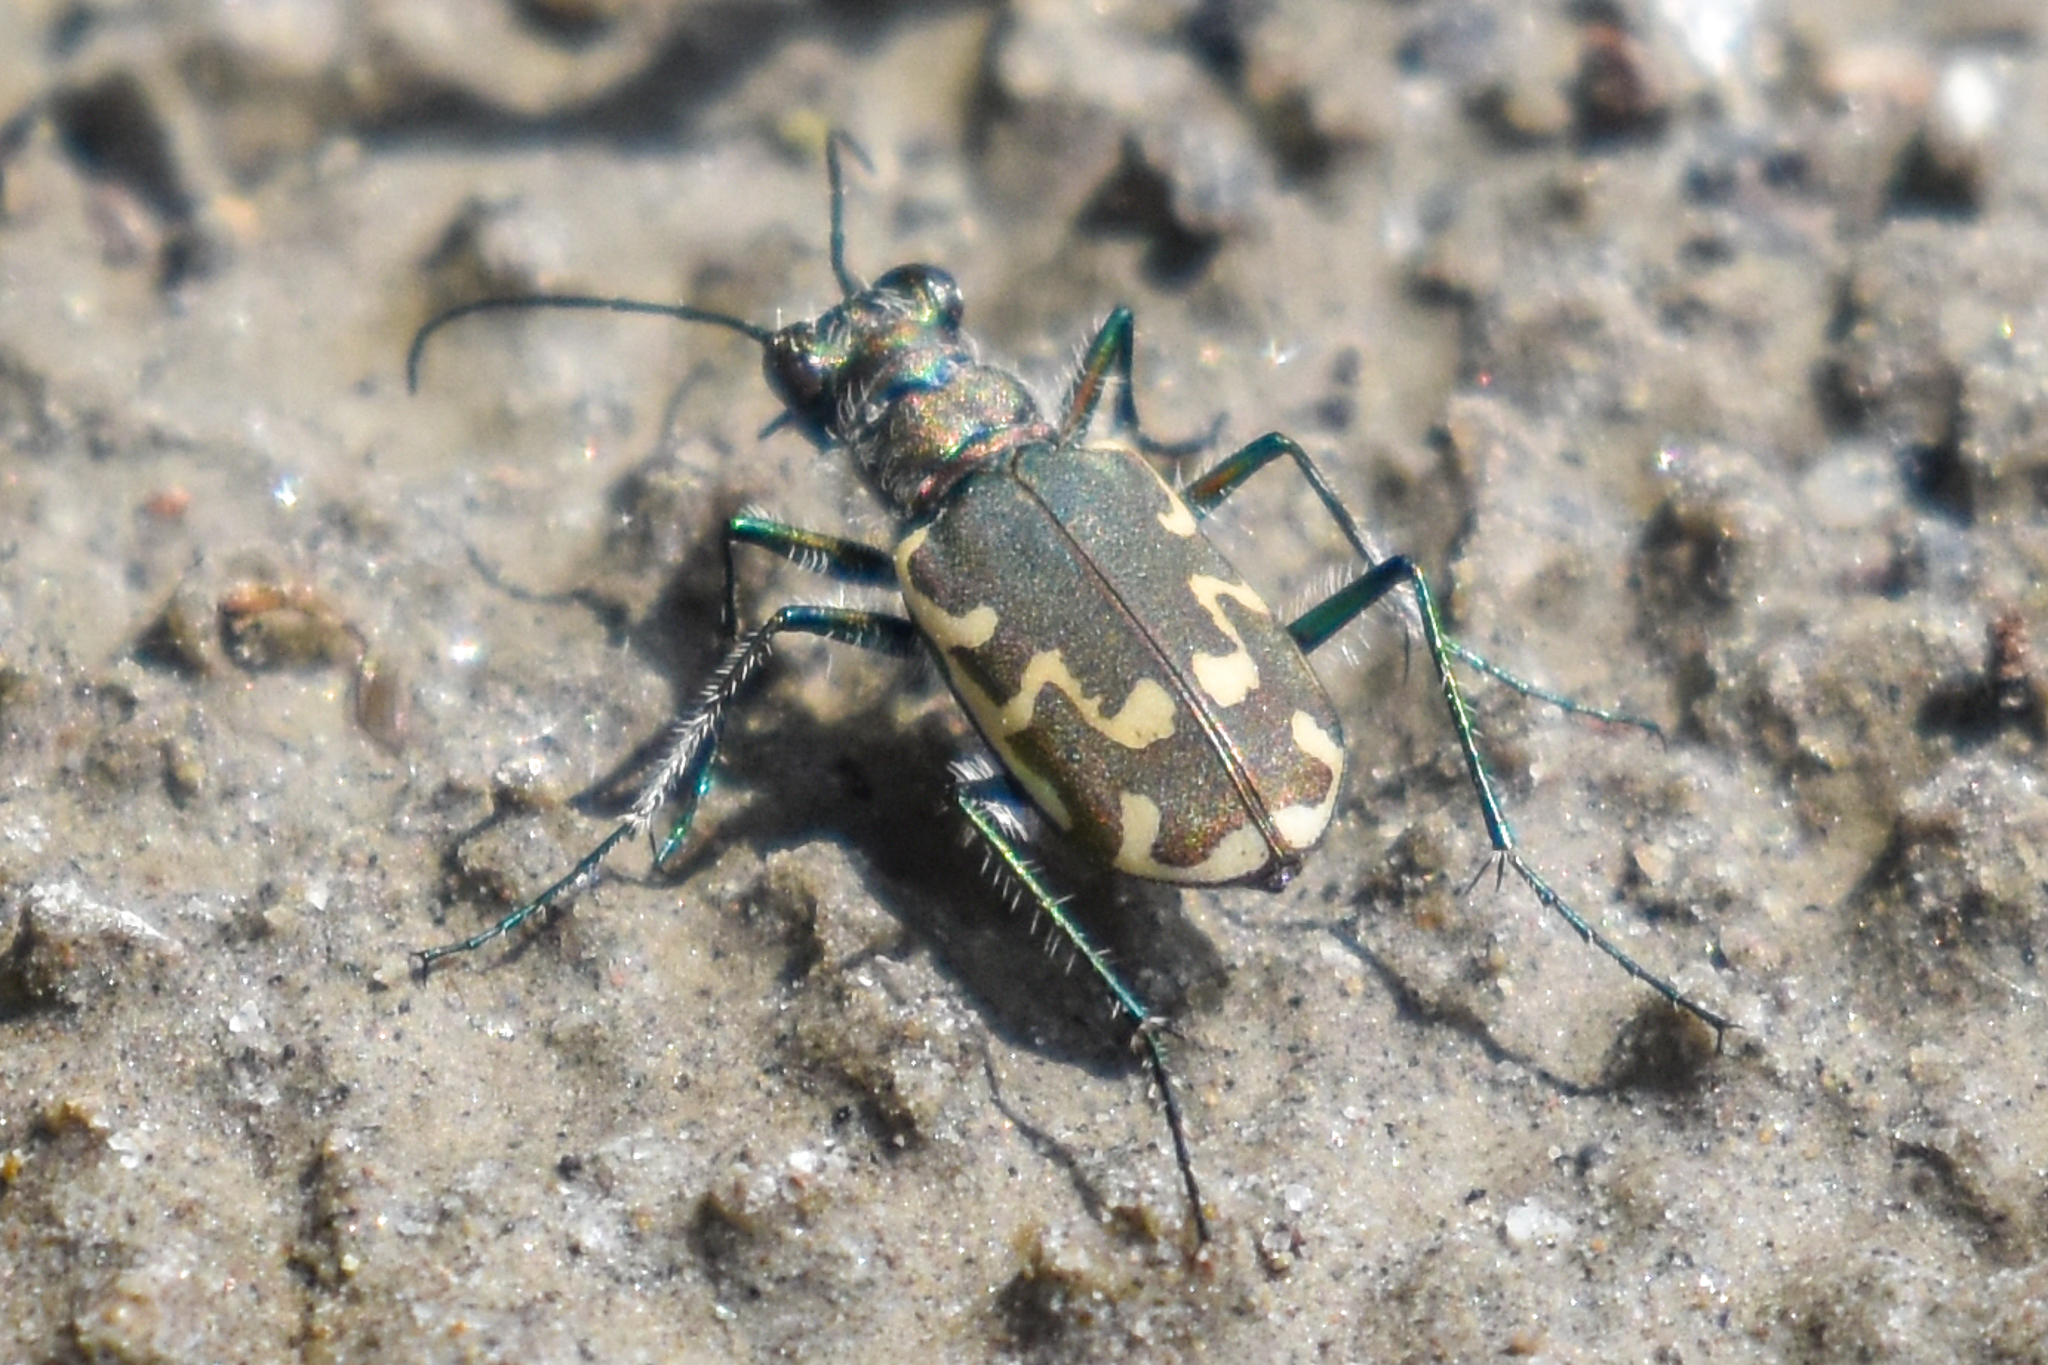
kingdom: Animalia
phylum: Arthropoda
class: Insecta
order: Coleoptera
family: Carabidae
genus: Cicindela
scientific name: Cicindela repanda
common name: Bronzed tiger beetle
